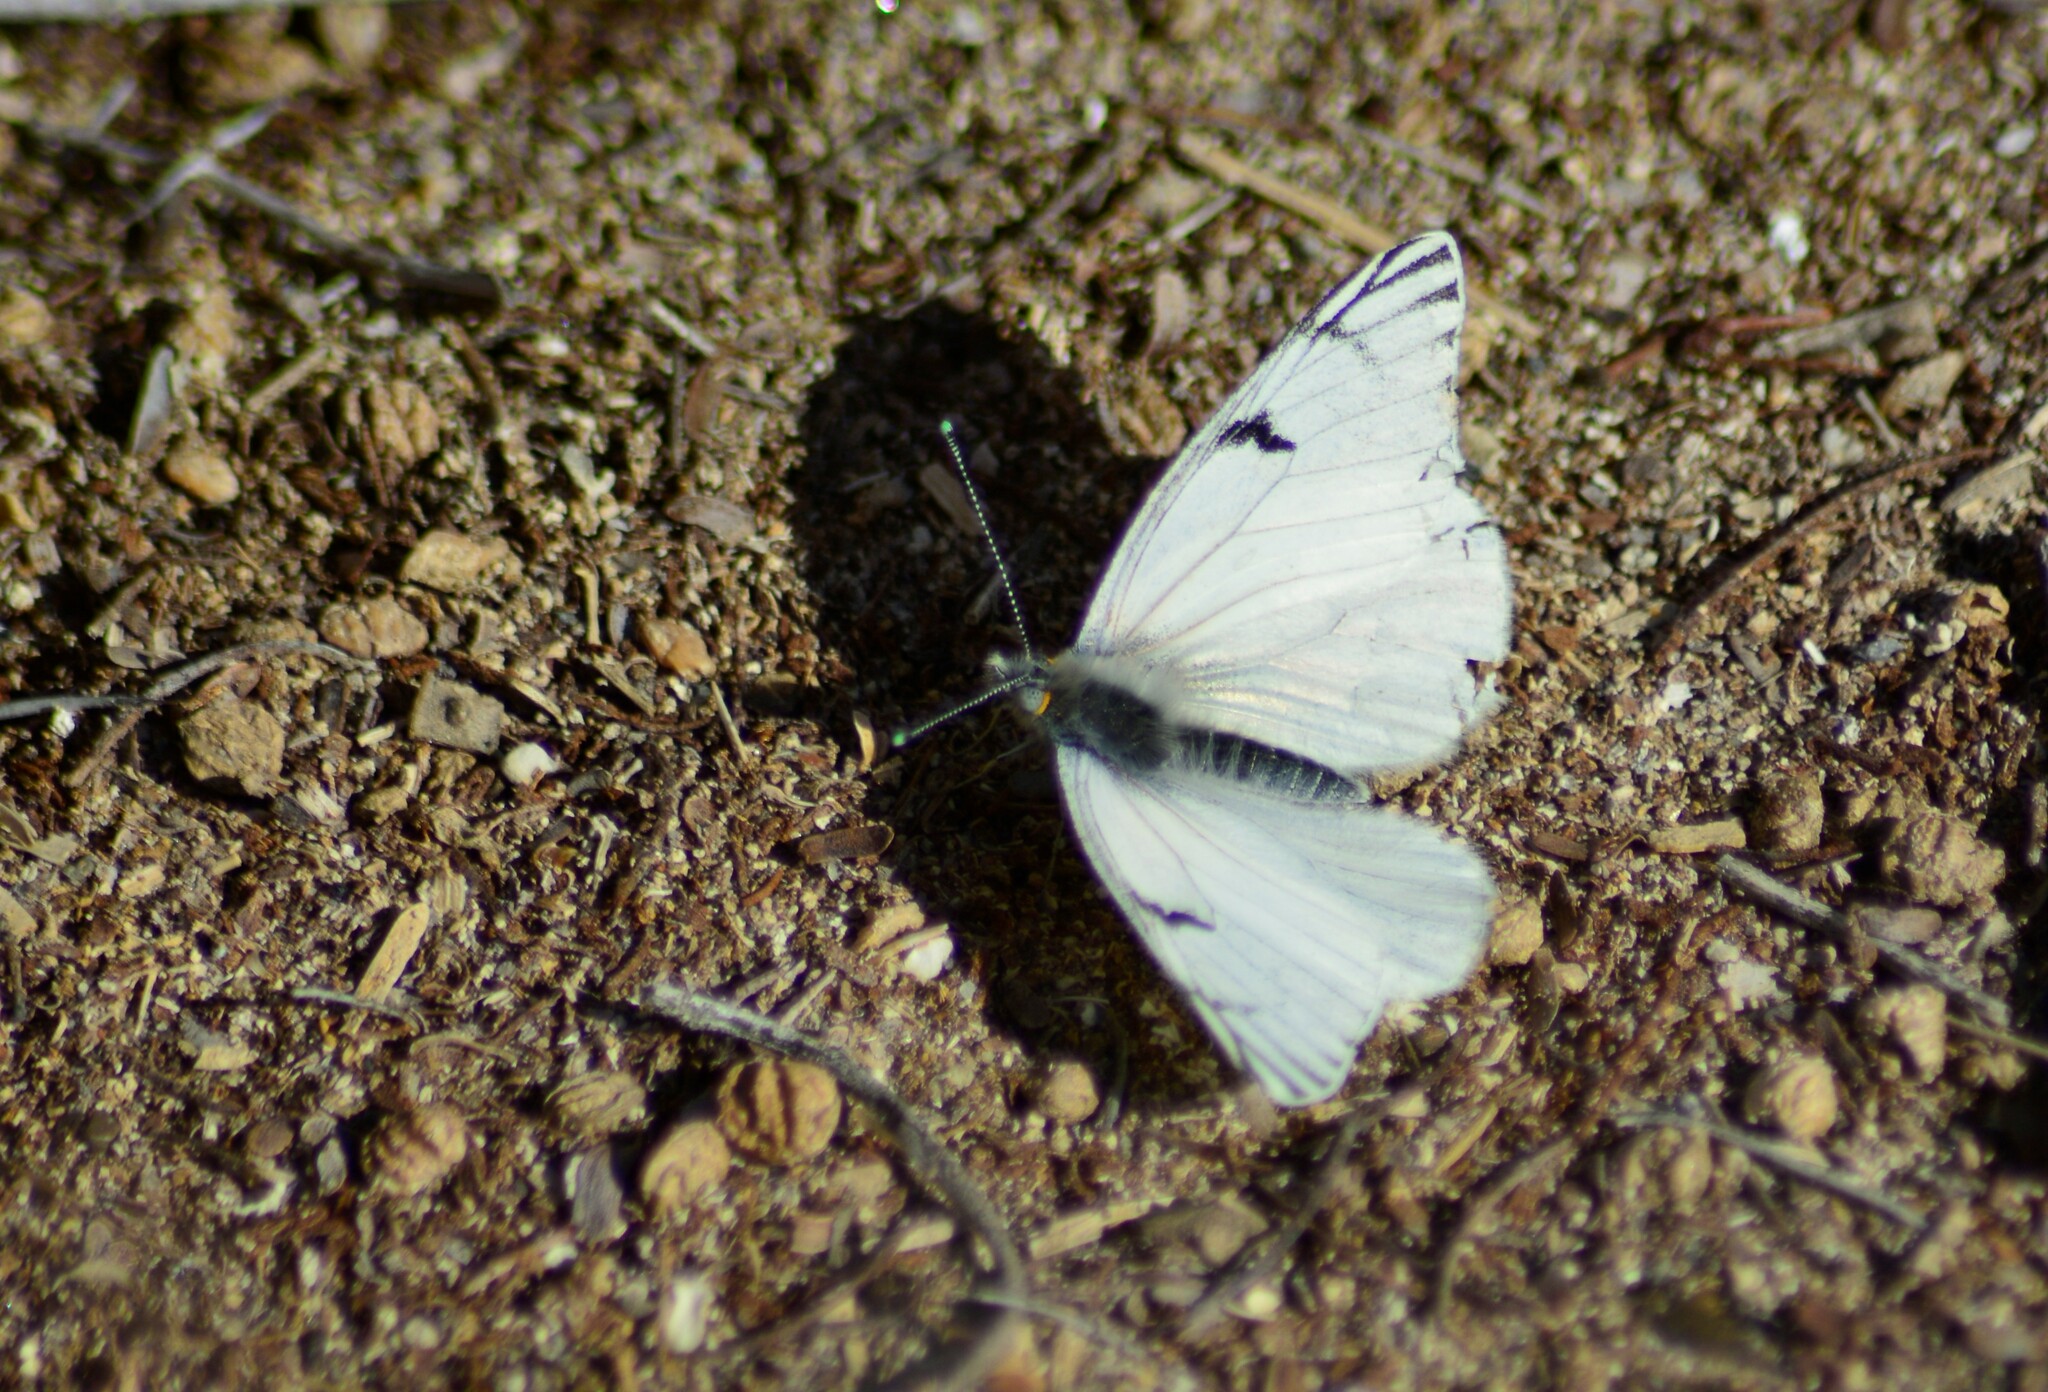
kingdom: Animalia
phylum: Arthropoda
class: Insecta
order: Lepidoptera
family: Pieridae
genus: Tatochila
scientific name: Tatochila mercedis
